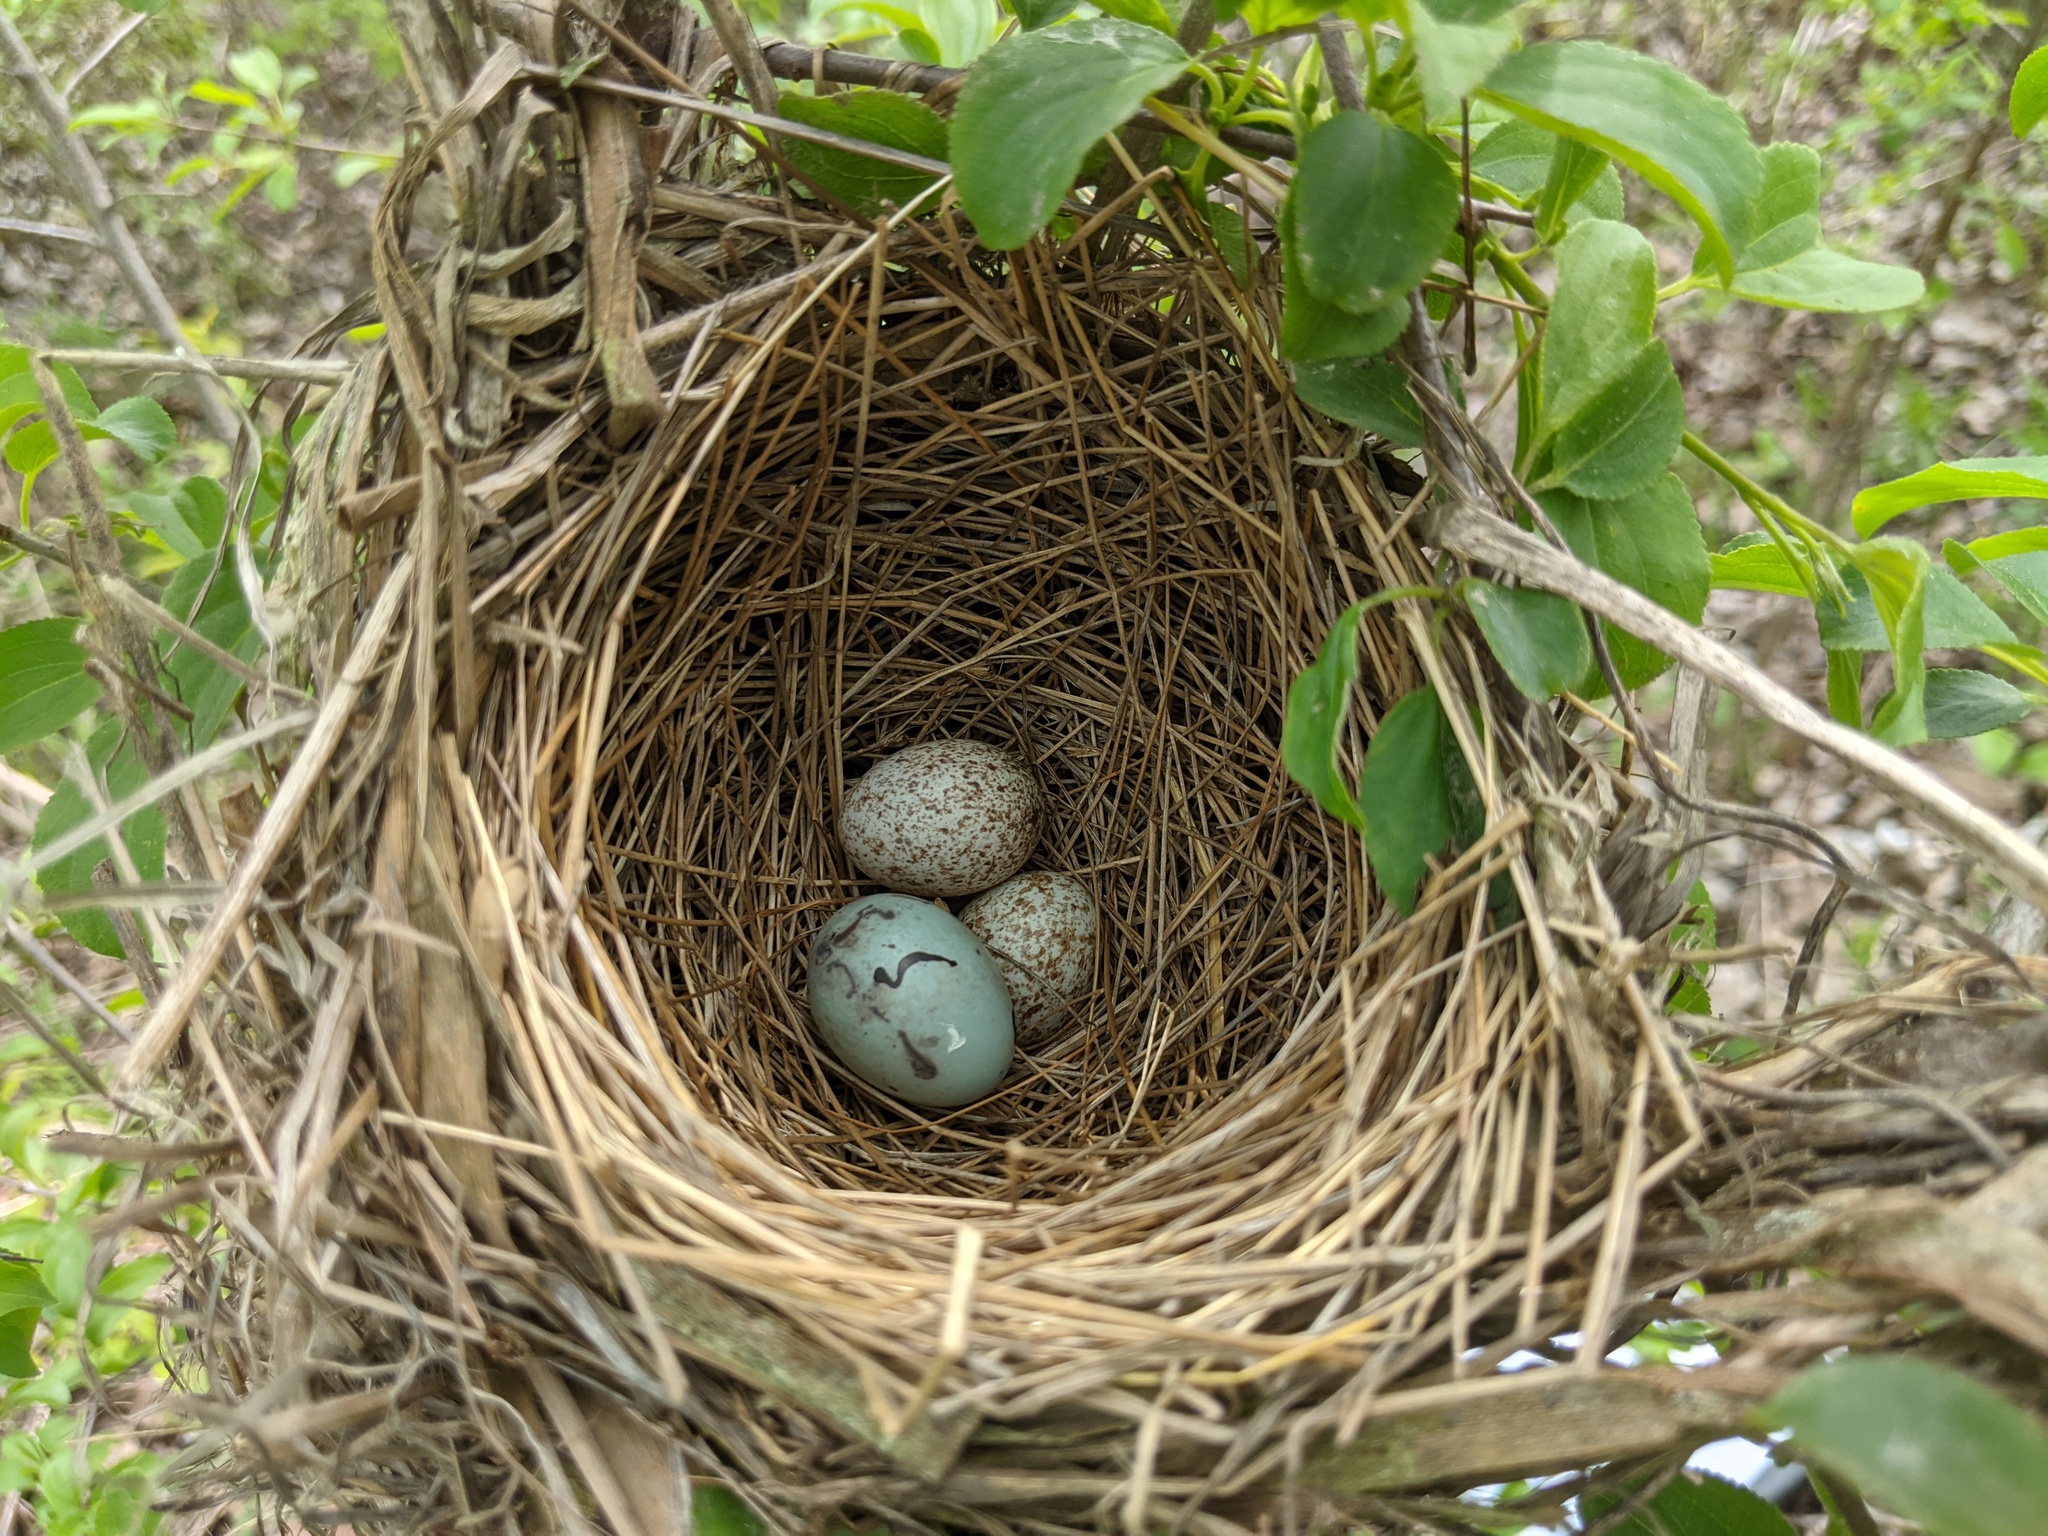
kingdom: Animalia
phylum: Chordata
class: Aves
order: Passeriformes
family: Icteridae
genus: Agelaius
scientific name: Agelaius phoeniceus
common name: Red-winged blackbird
